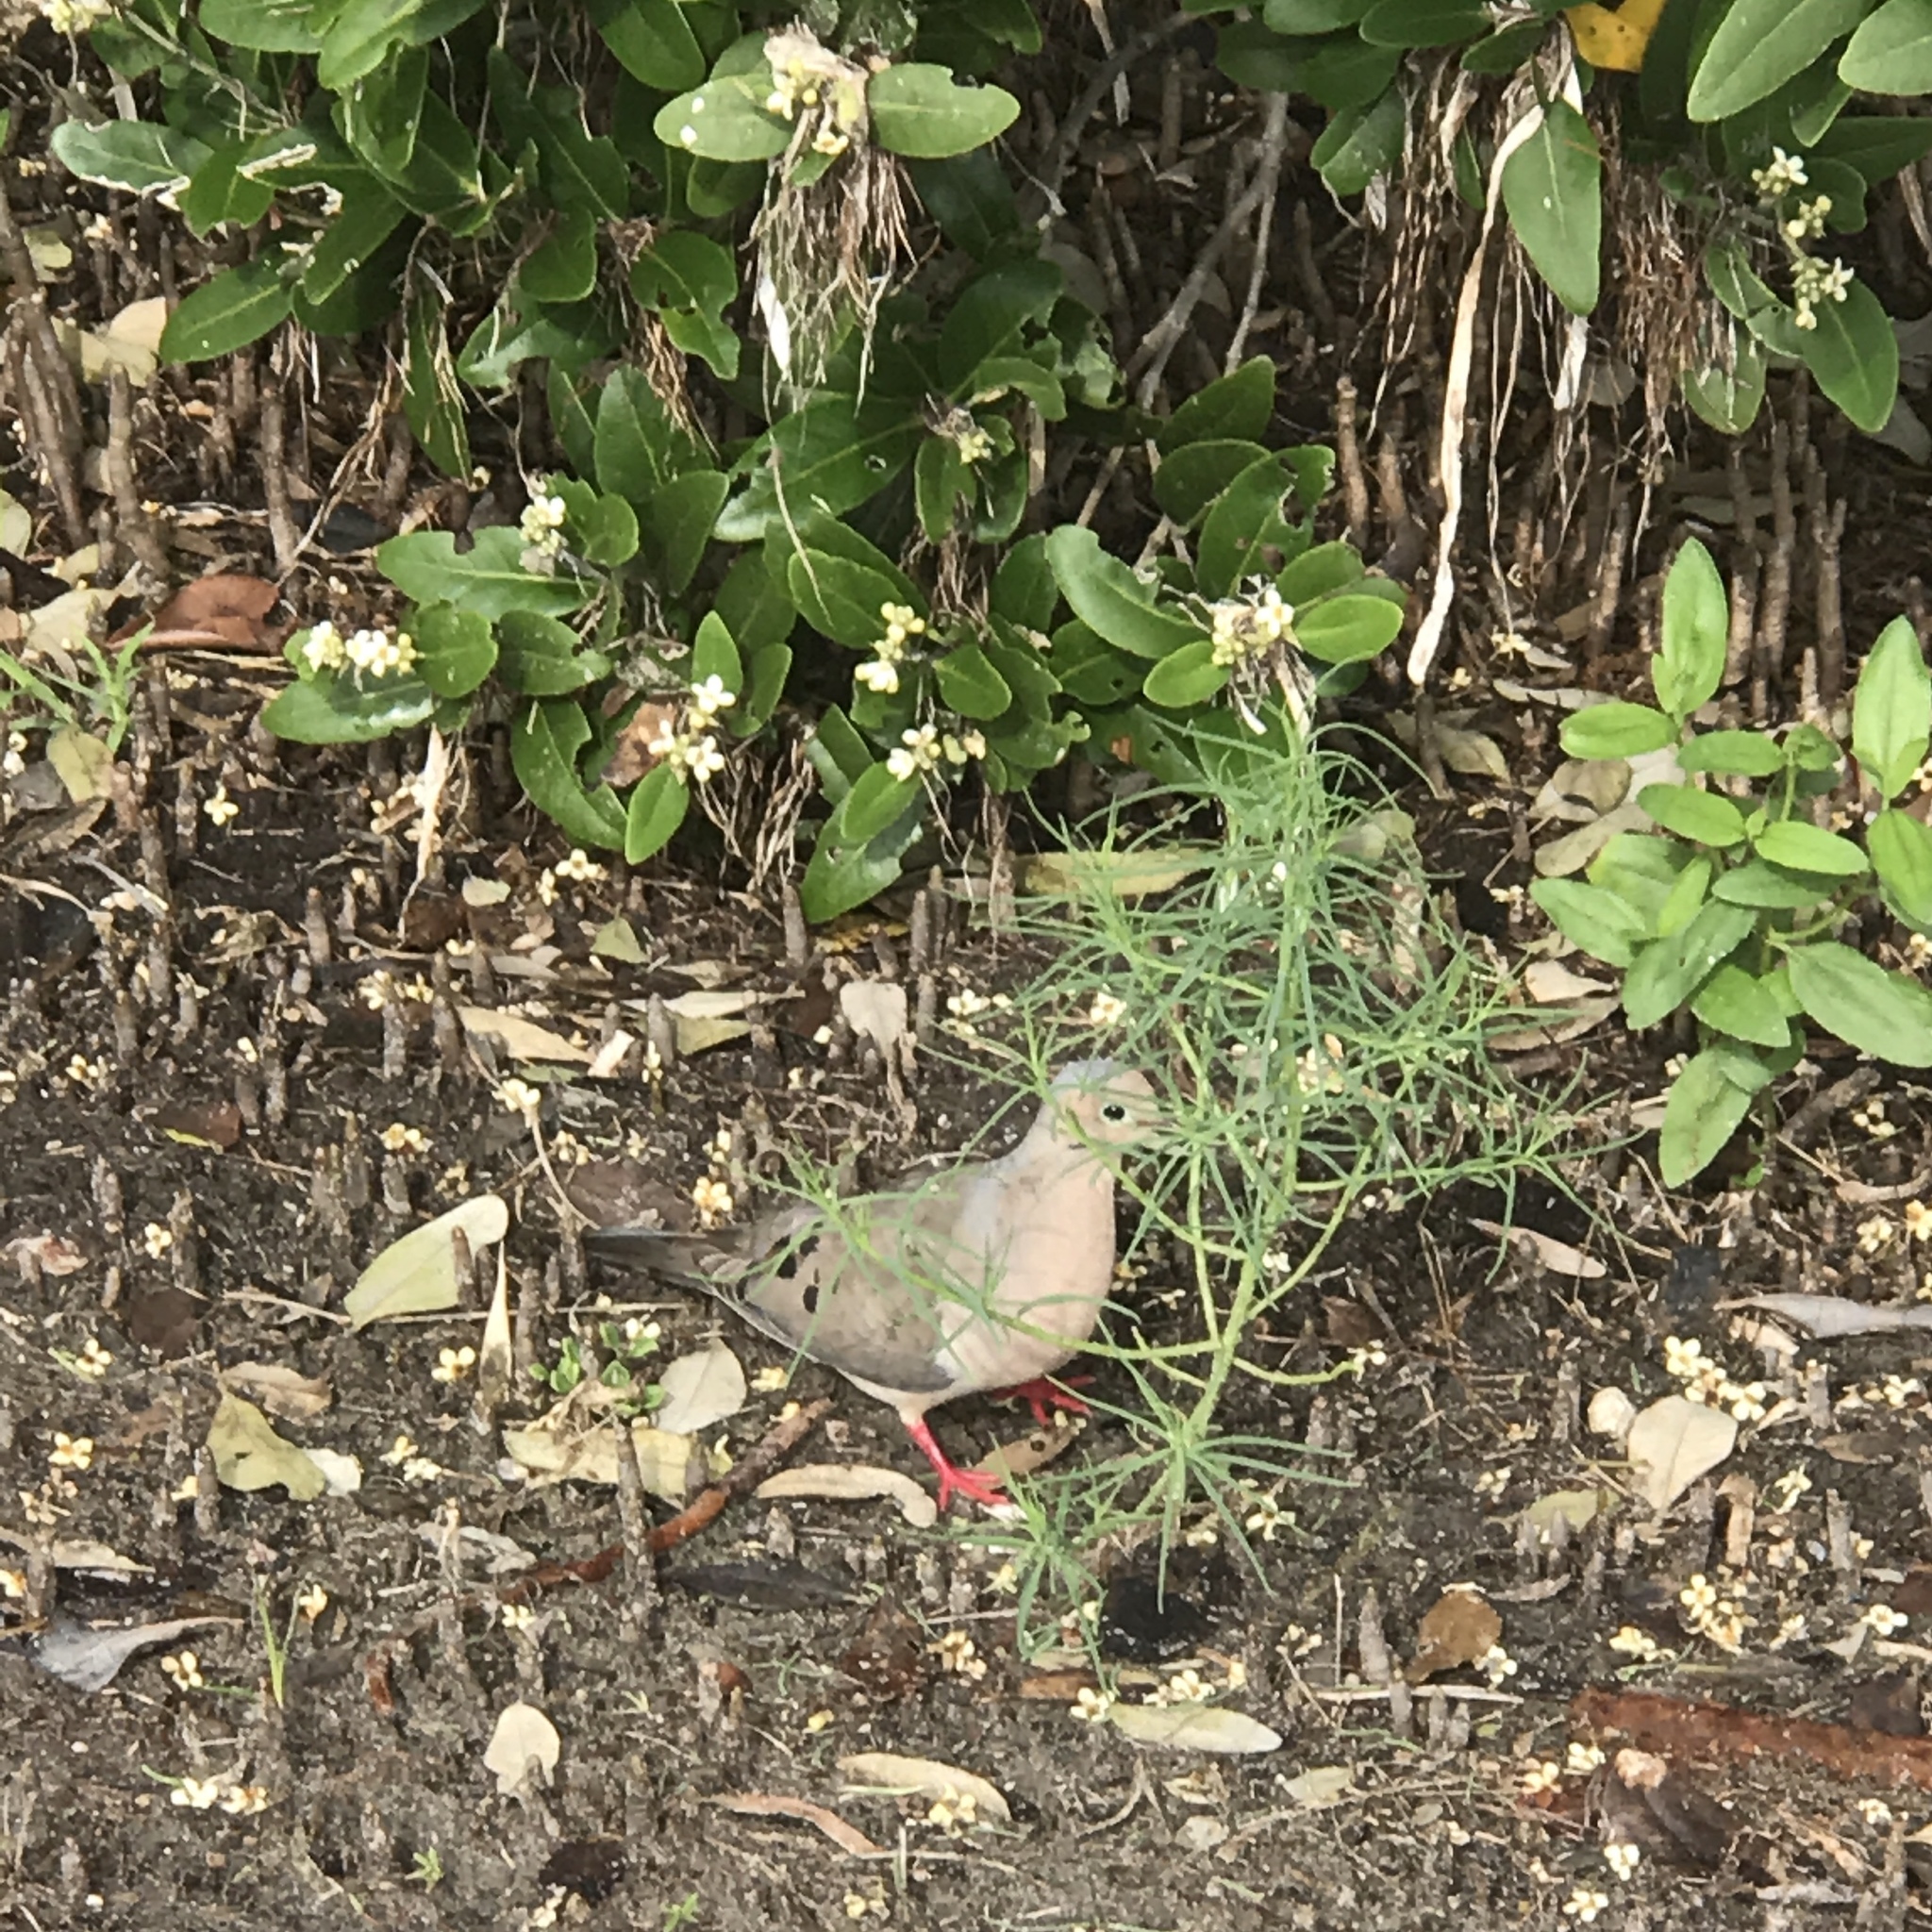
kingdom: Animalia
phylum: Chordata
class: Aves
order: Columbiformes
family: Columbidae
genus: Zenaida
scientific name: Zenaida macroura
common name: Mourning dove
